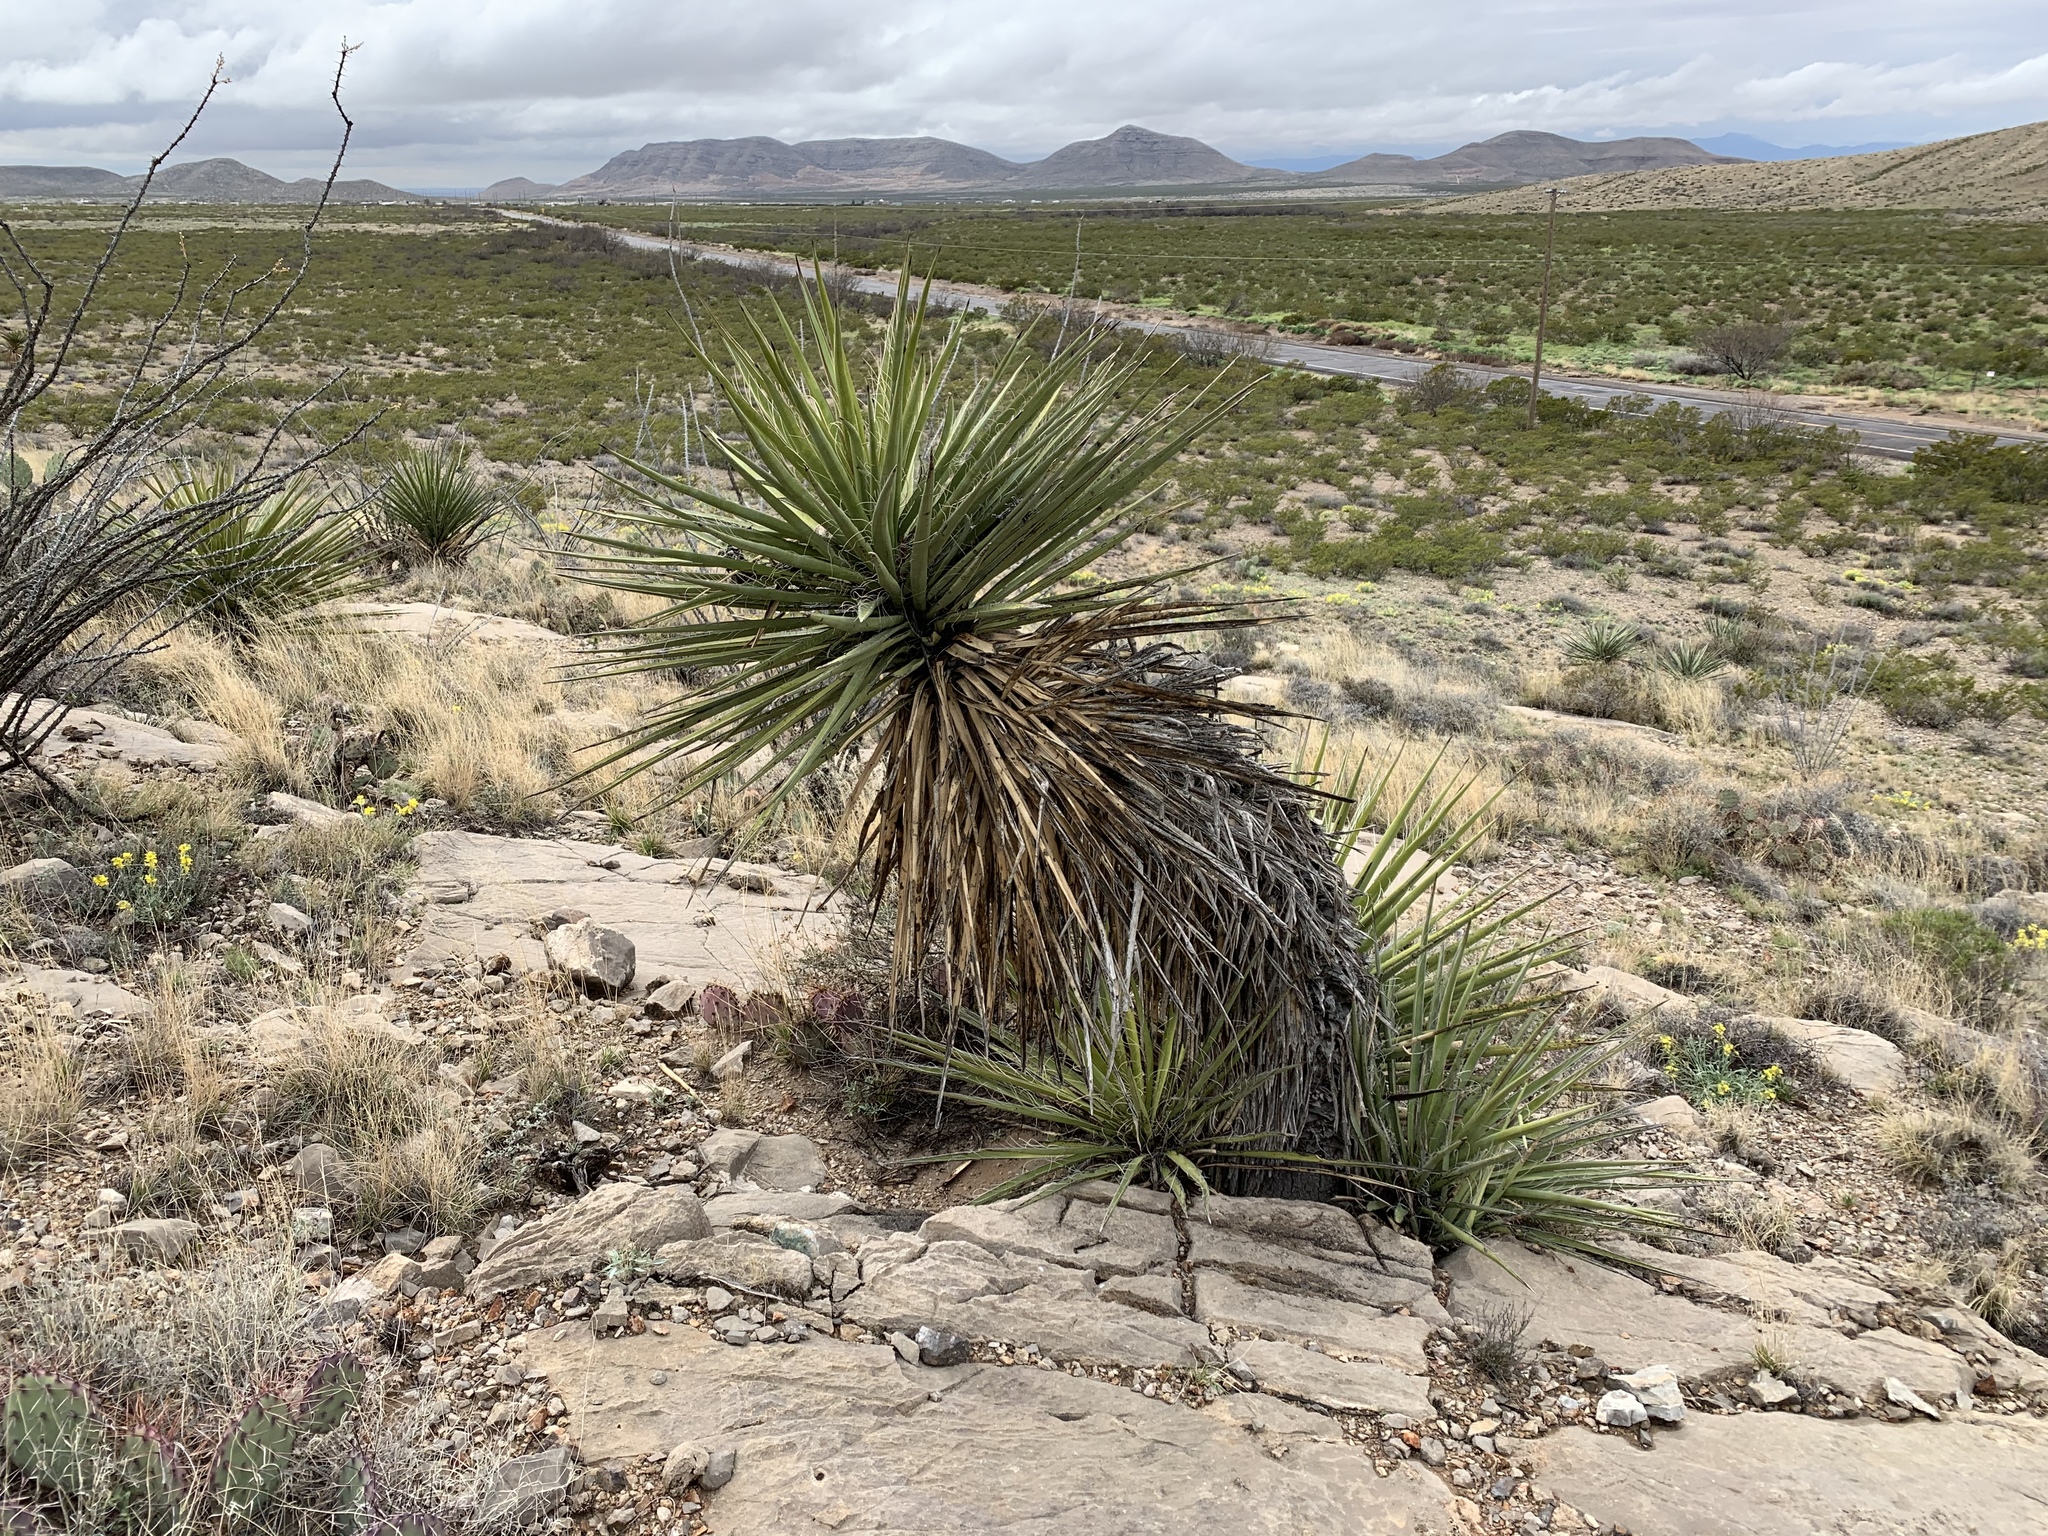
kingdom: Plantae
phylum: Tracheophyta
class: Liliopsida
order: Asparagales
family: Asparagaceae
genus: Yucca
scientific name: Yucca treculiana
